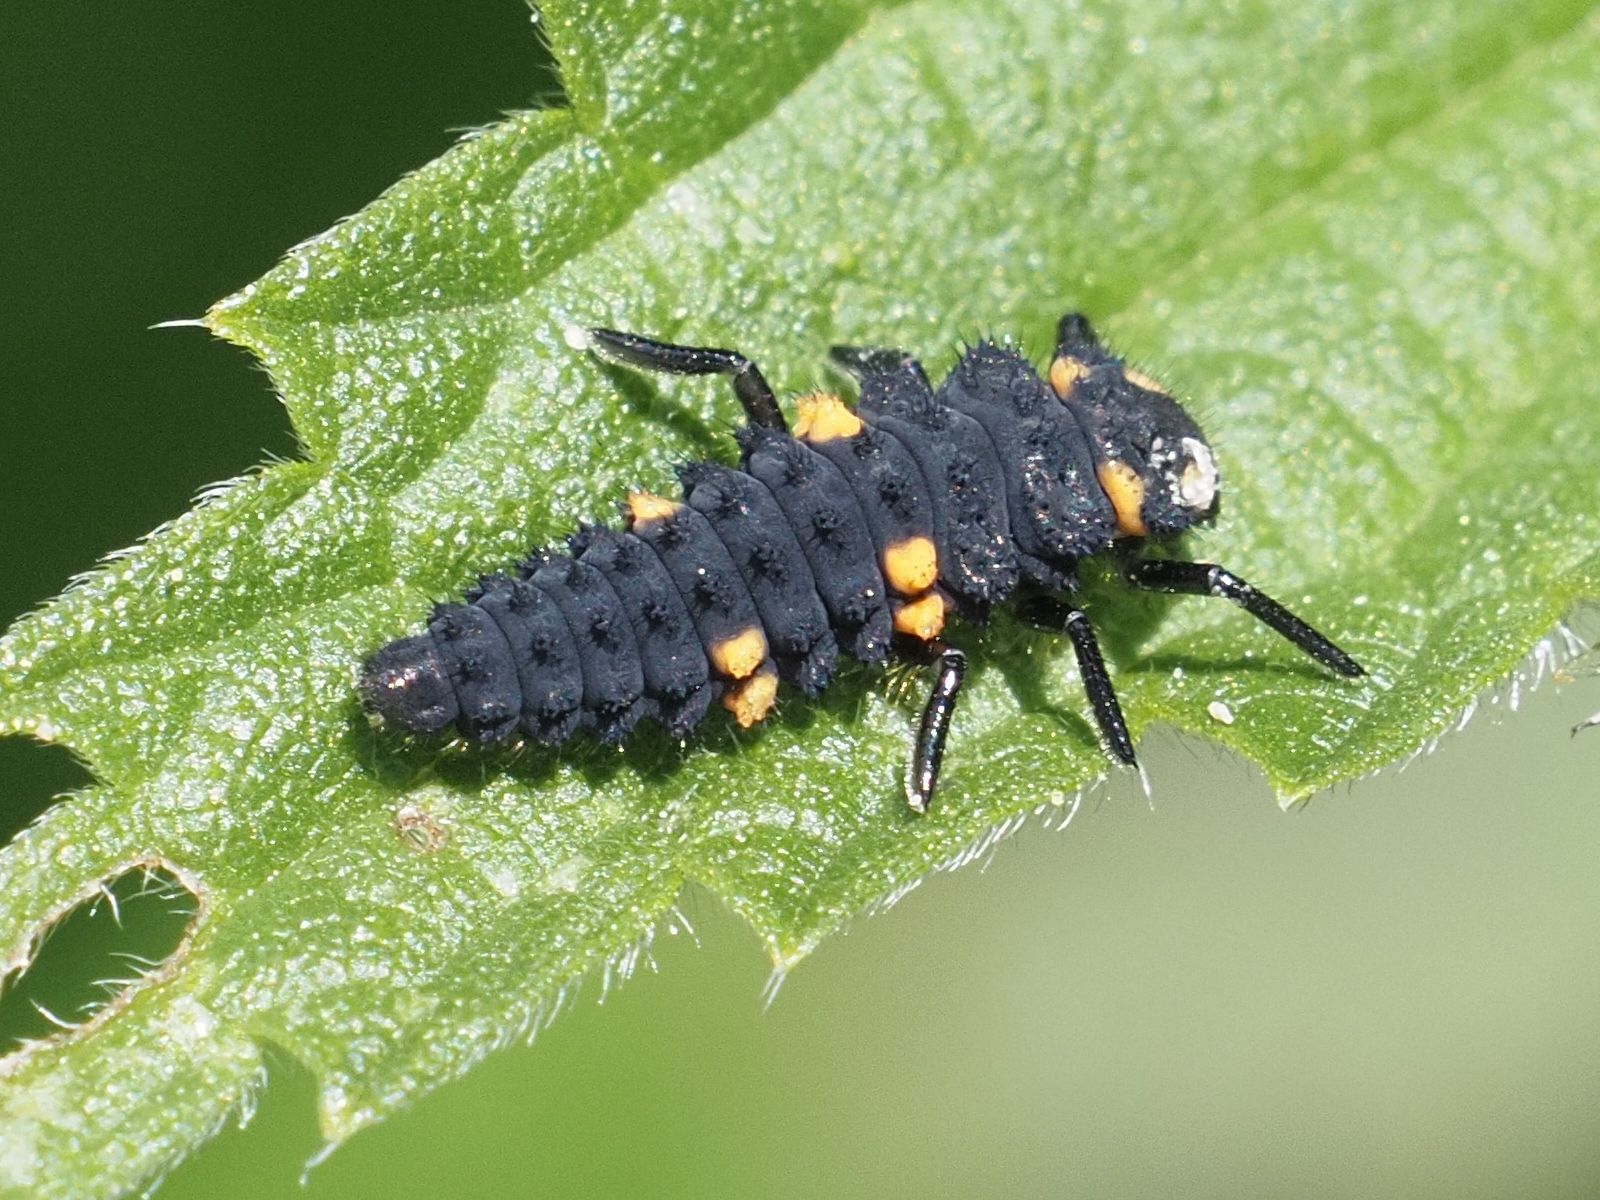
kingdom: Animalia
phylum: Arthropoda
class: Insecta
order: Coleoptera
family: Coccinellidae
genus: Coccinella
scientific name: Coccinella septempunctata
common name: Sevenspotted lady beetle
